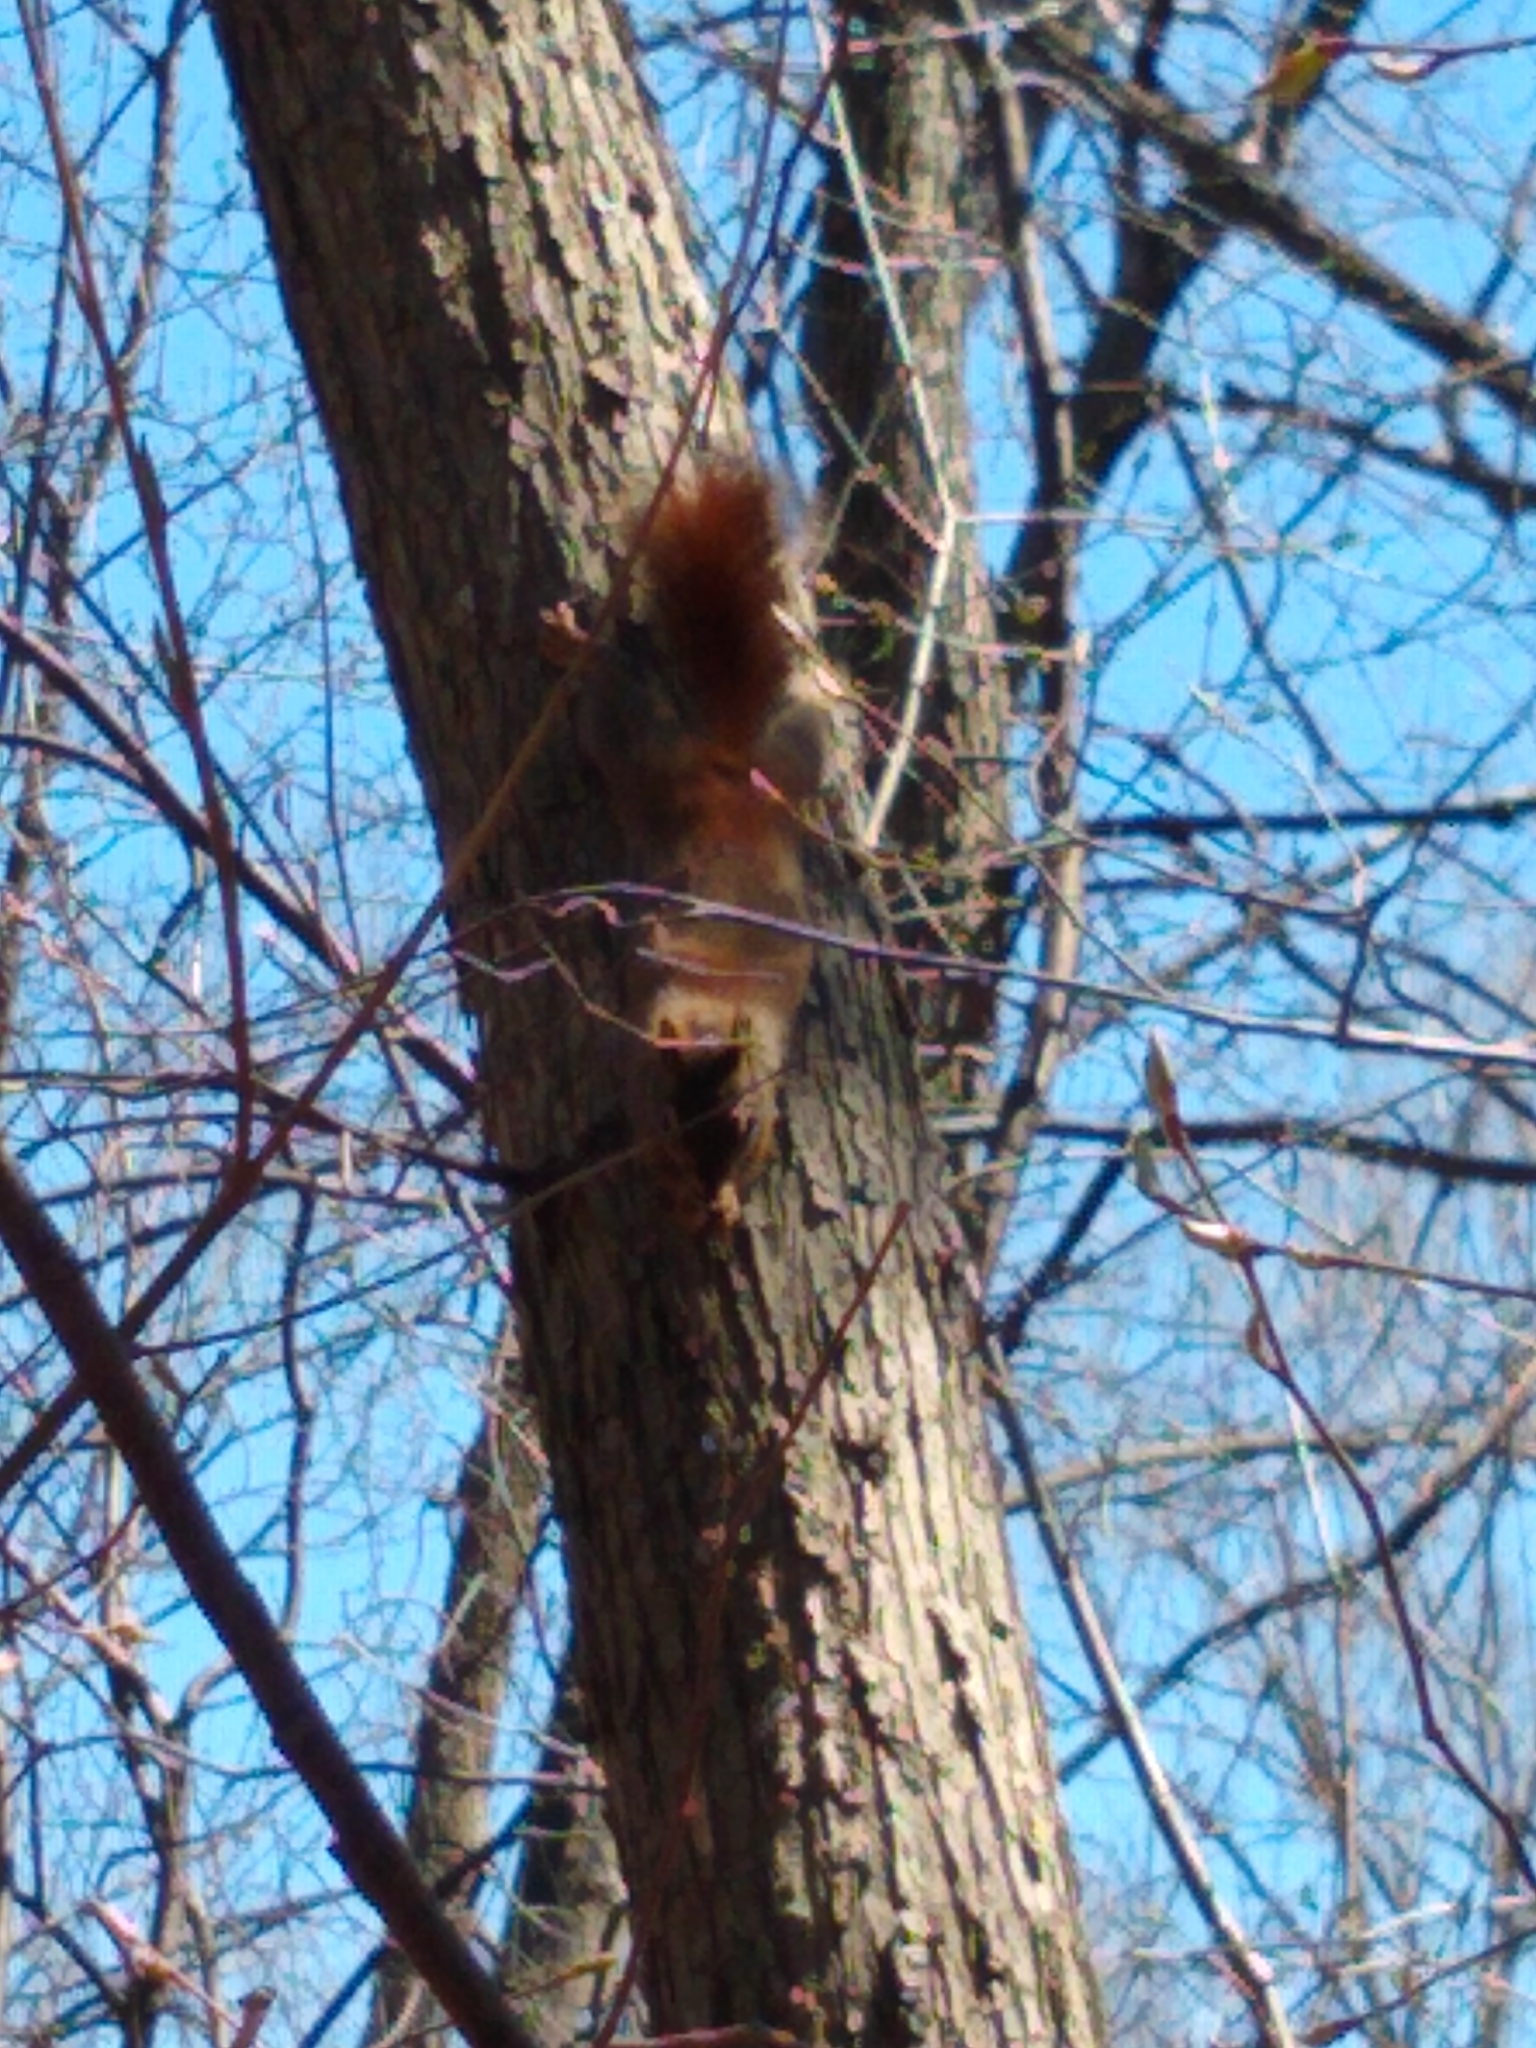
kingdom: Animalia
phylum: Chordata
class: Mammalia
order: Rodentia
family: Sciuridae
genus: Tamiasciurus
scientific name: Tamiasciurus hudsonicus
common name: Red squirrel
